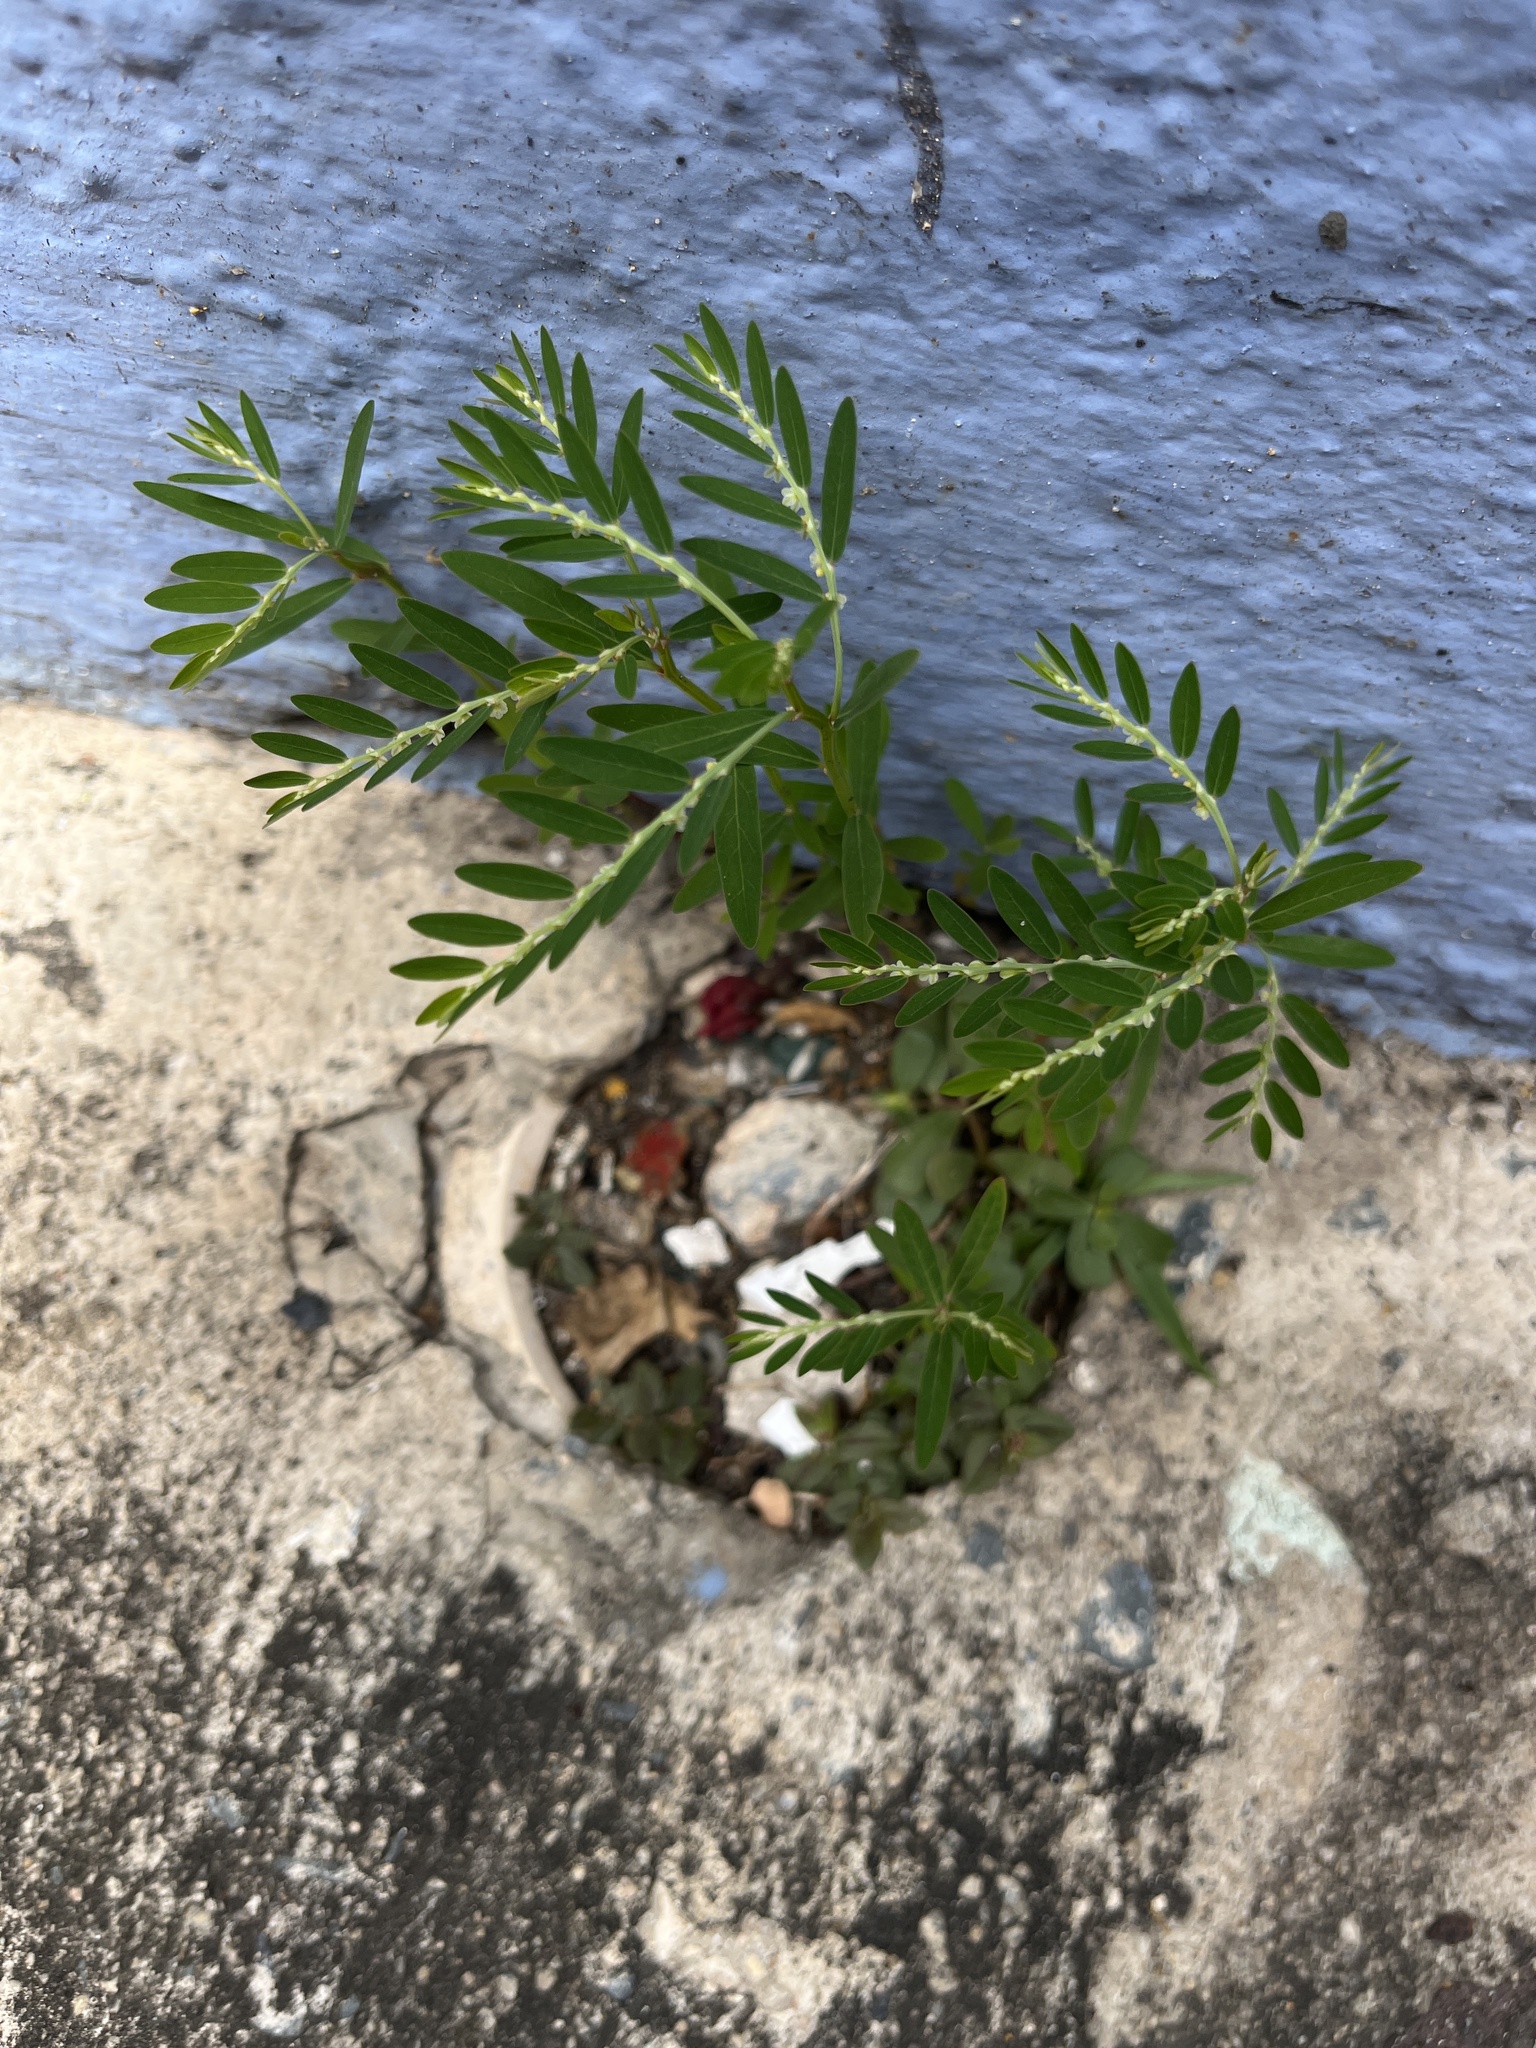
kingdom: Plantae
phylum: Tracheophyta
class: Magnoliopsida
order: Malpighiales
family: Phyllanthaceae
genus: Phyllanthus
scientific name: Phyllanthus debilis
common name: Niruri
